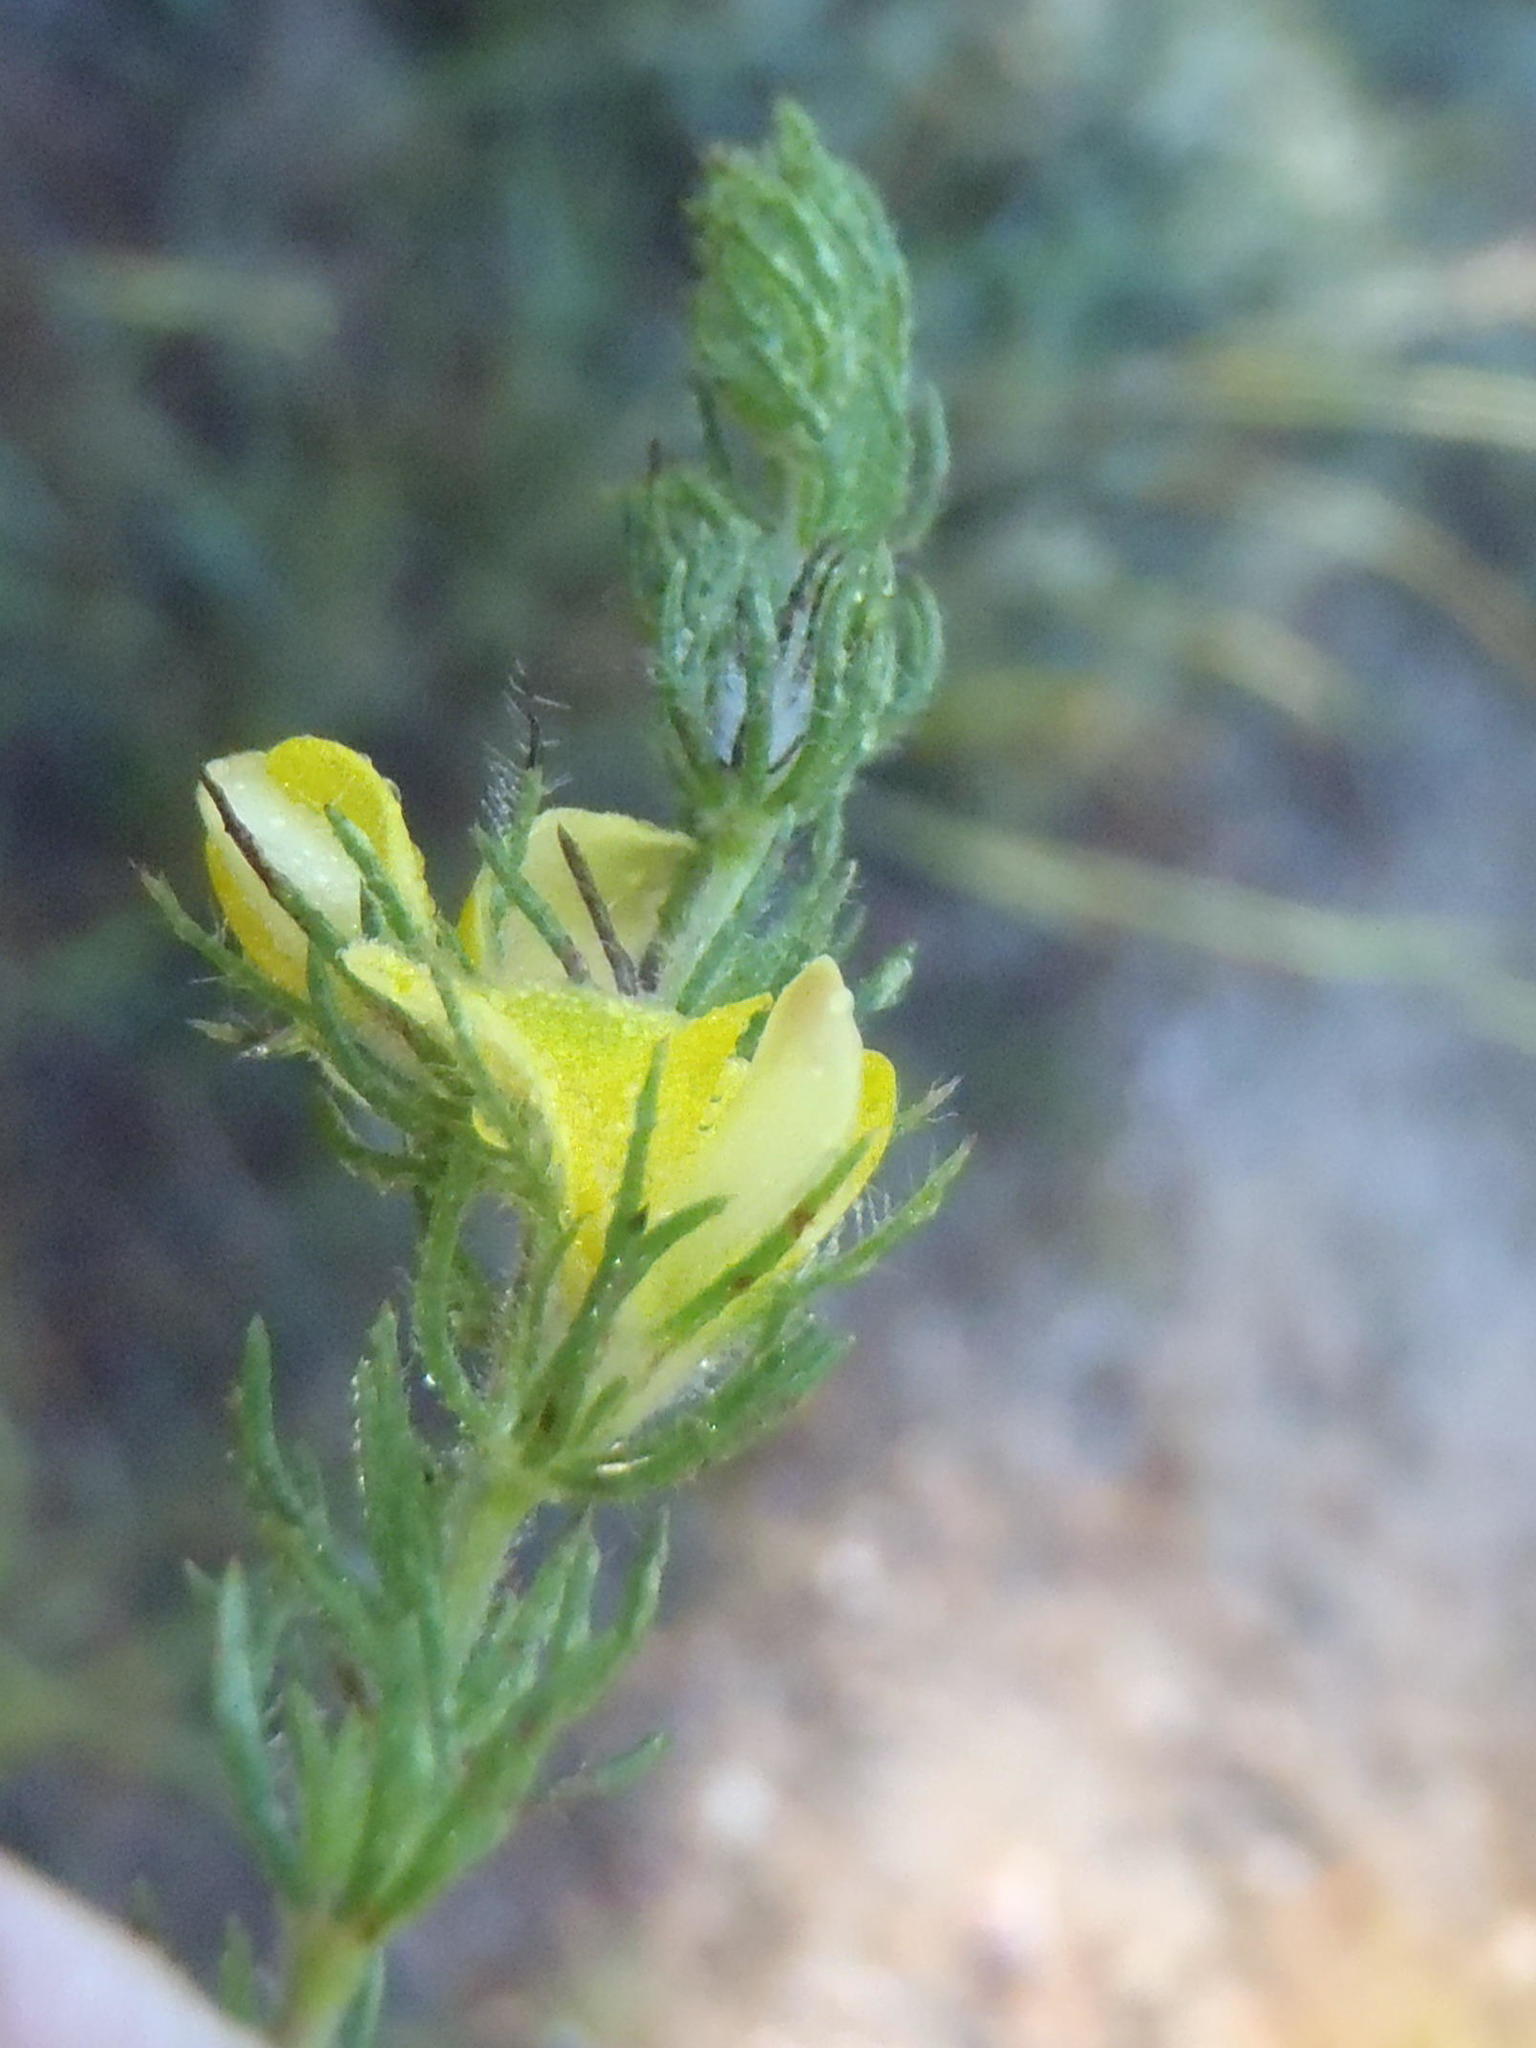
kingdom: Plantae
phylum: Tracheophyta
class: Magnoliopsida
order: Fabales
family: Fabaceae
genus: Aspalathus
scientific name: Aspalathus ciliaris
